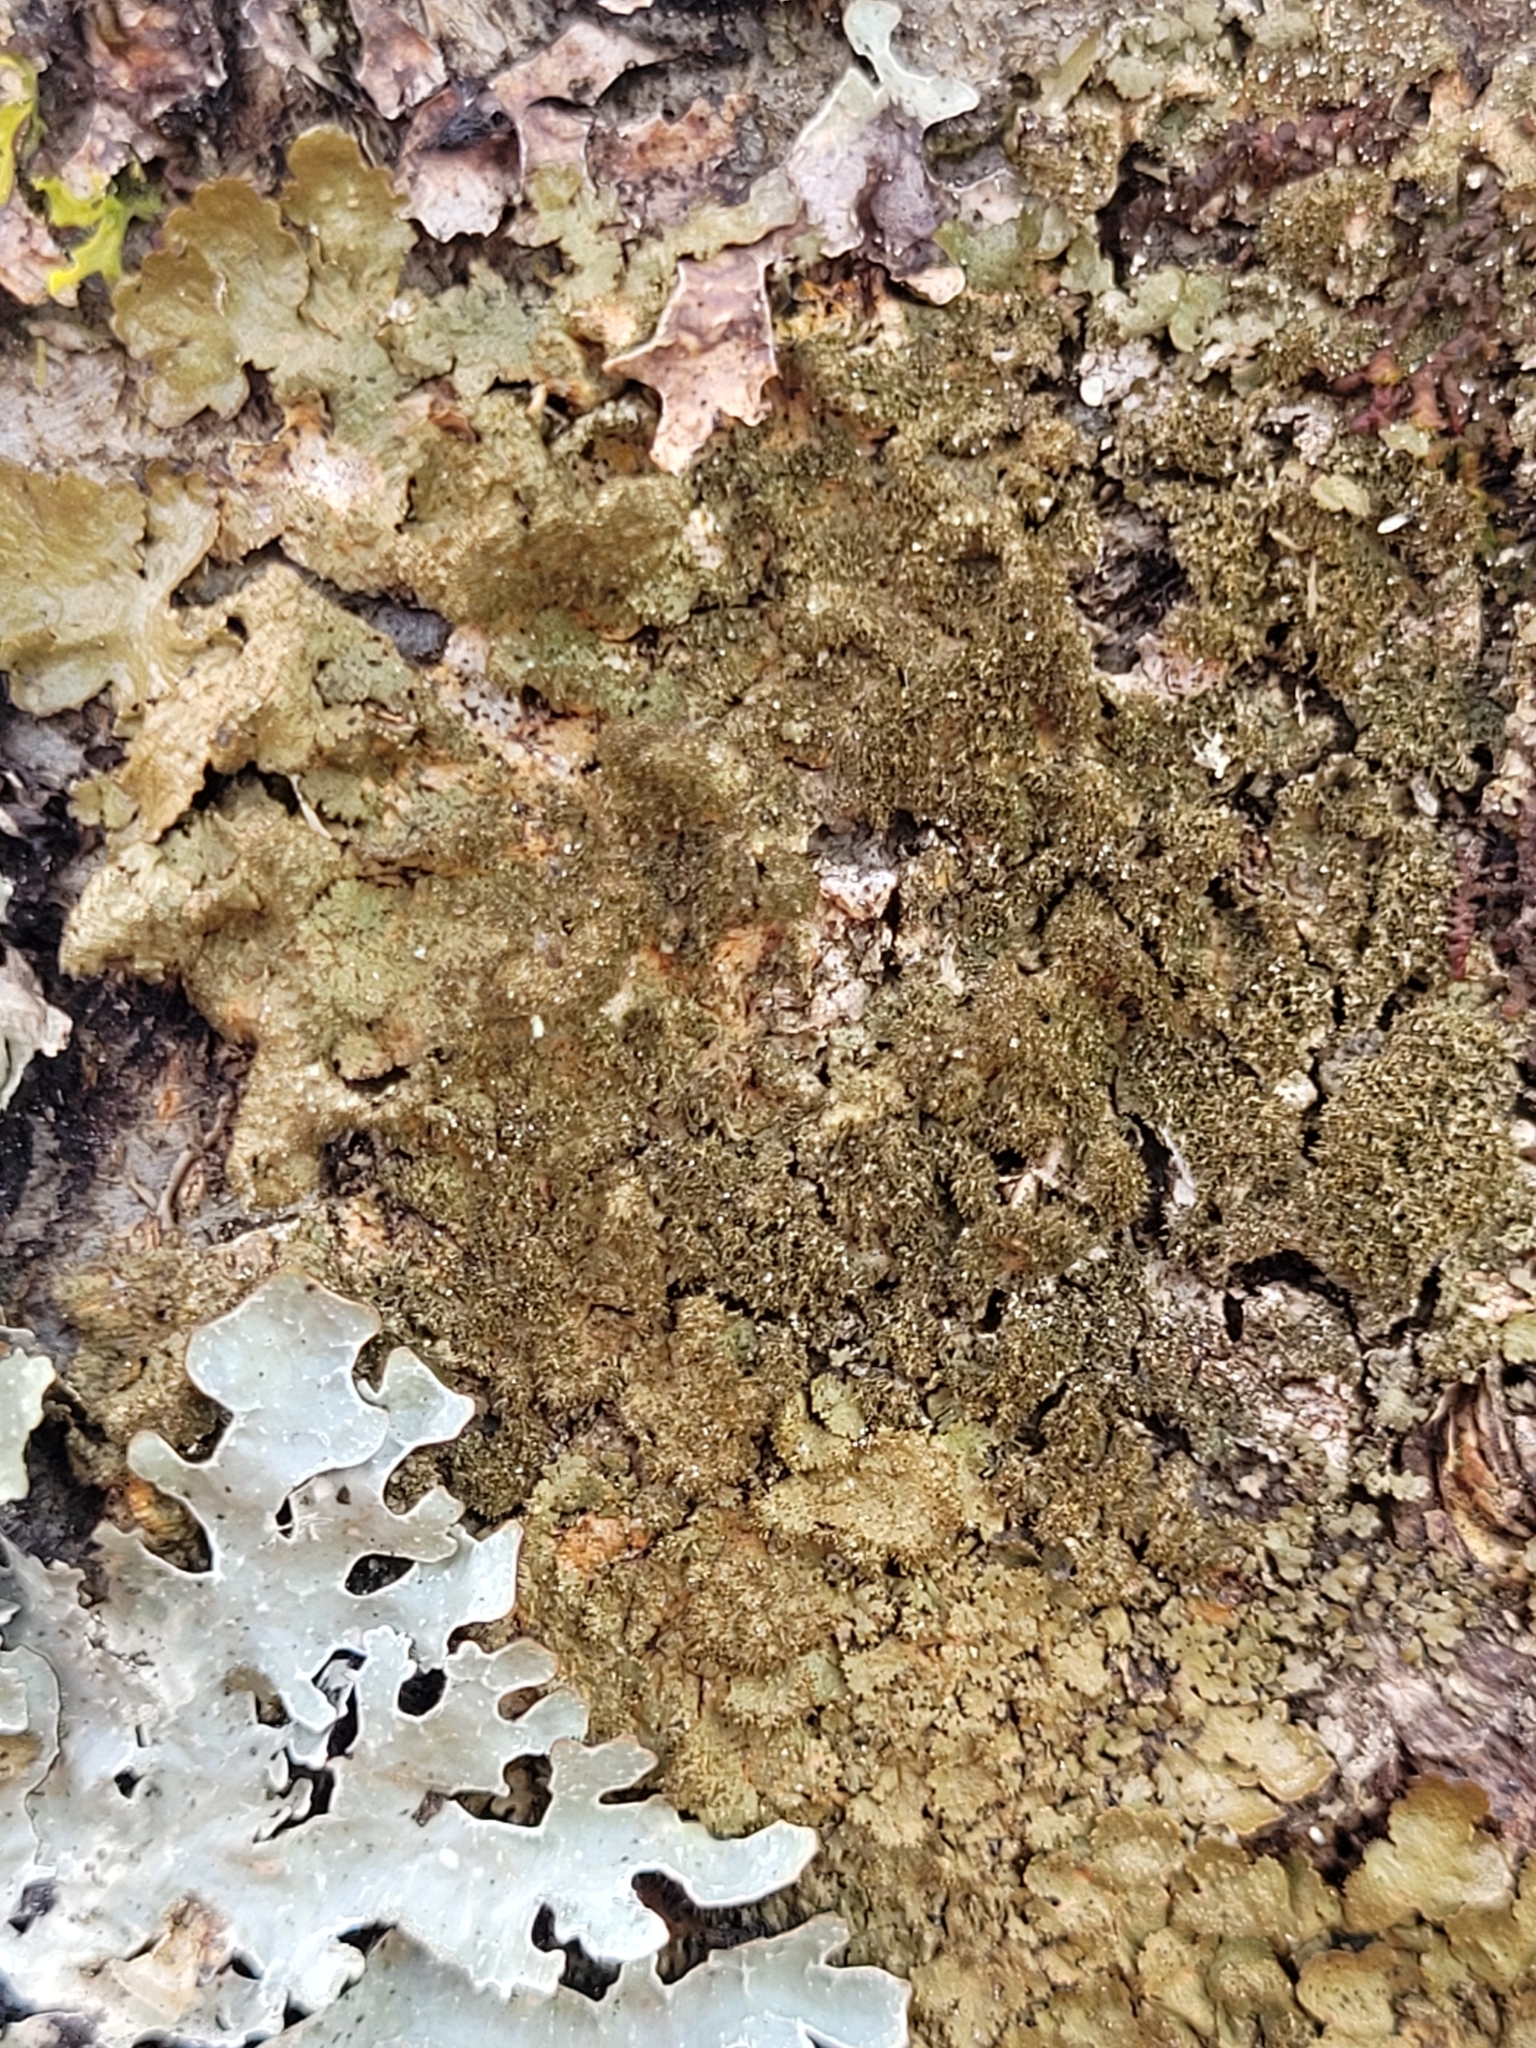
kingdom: Fungi
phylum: Ascomycota
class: Lecanoromycetes
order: Lecanorales
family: Parmeliaceae
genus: Melanelixia
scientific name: Melanelixia glabratula
